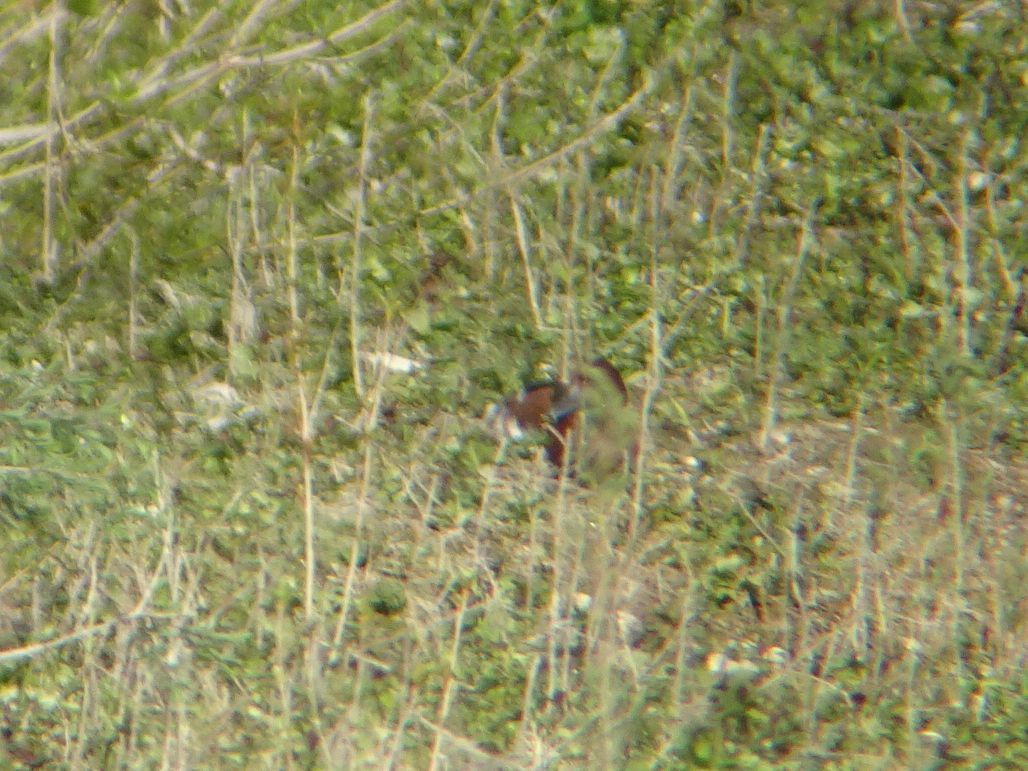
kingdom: Animalia
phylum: Chordata
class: Aves
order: Anseriformes
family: Anatidae
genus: Aythya
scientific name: Aythya nyroca
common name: Ferruginous duck
